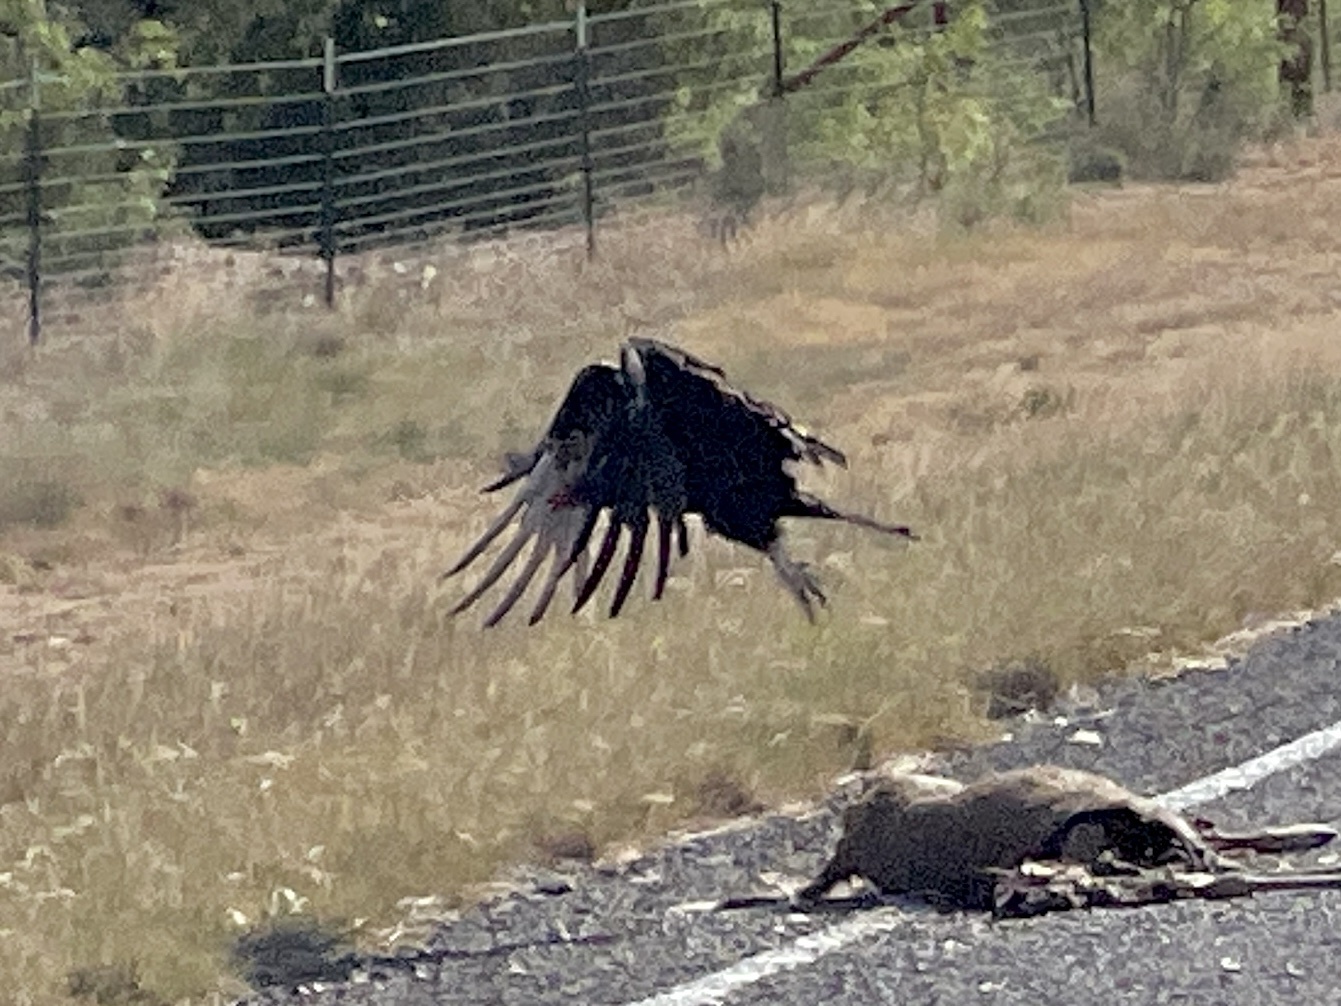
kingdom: Animalia
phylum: Chordata
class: Aves
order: Accipitriformes
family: Cathartidae
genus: Cathartes
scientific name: Cathartes aura
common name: Turkey vulture
